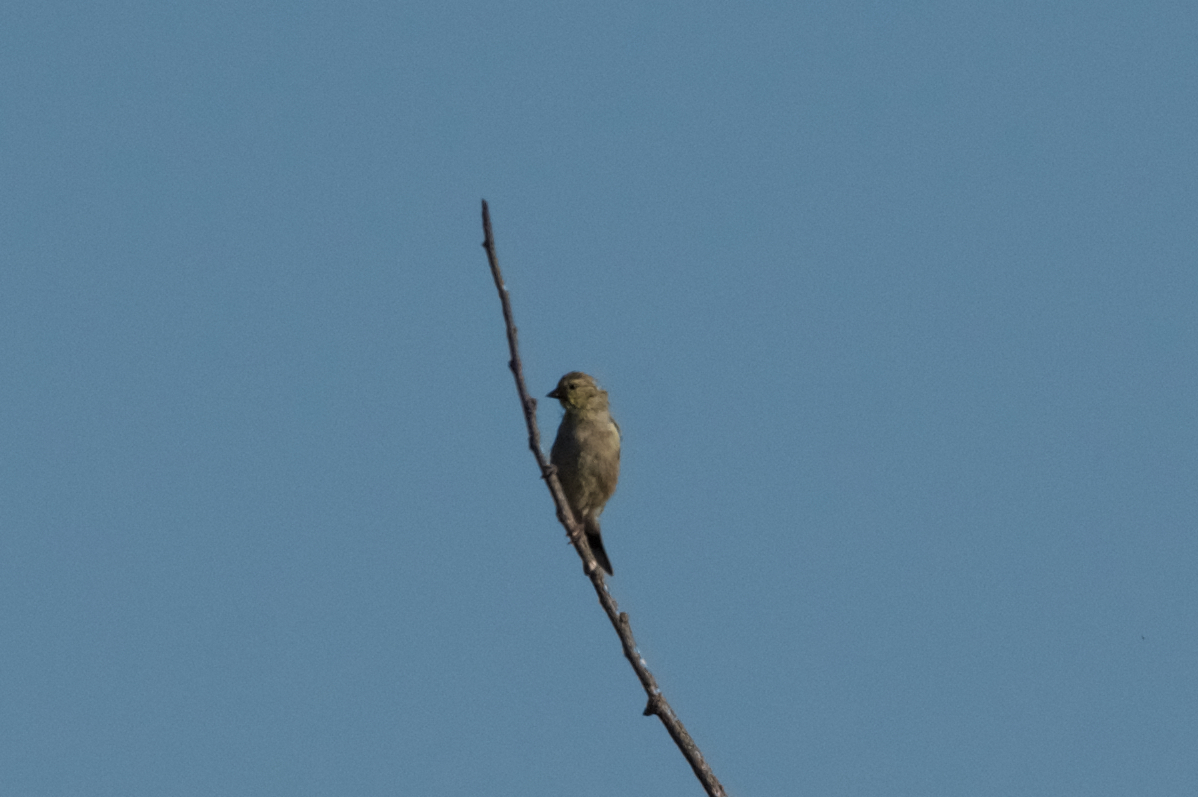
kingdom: Animalia
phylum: Chordata
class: Aves
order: Passeriformes
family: Fringillidae
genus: Spinus
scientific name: Spinus tristis
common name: American goldfinch
